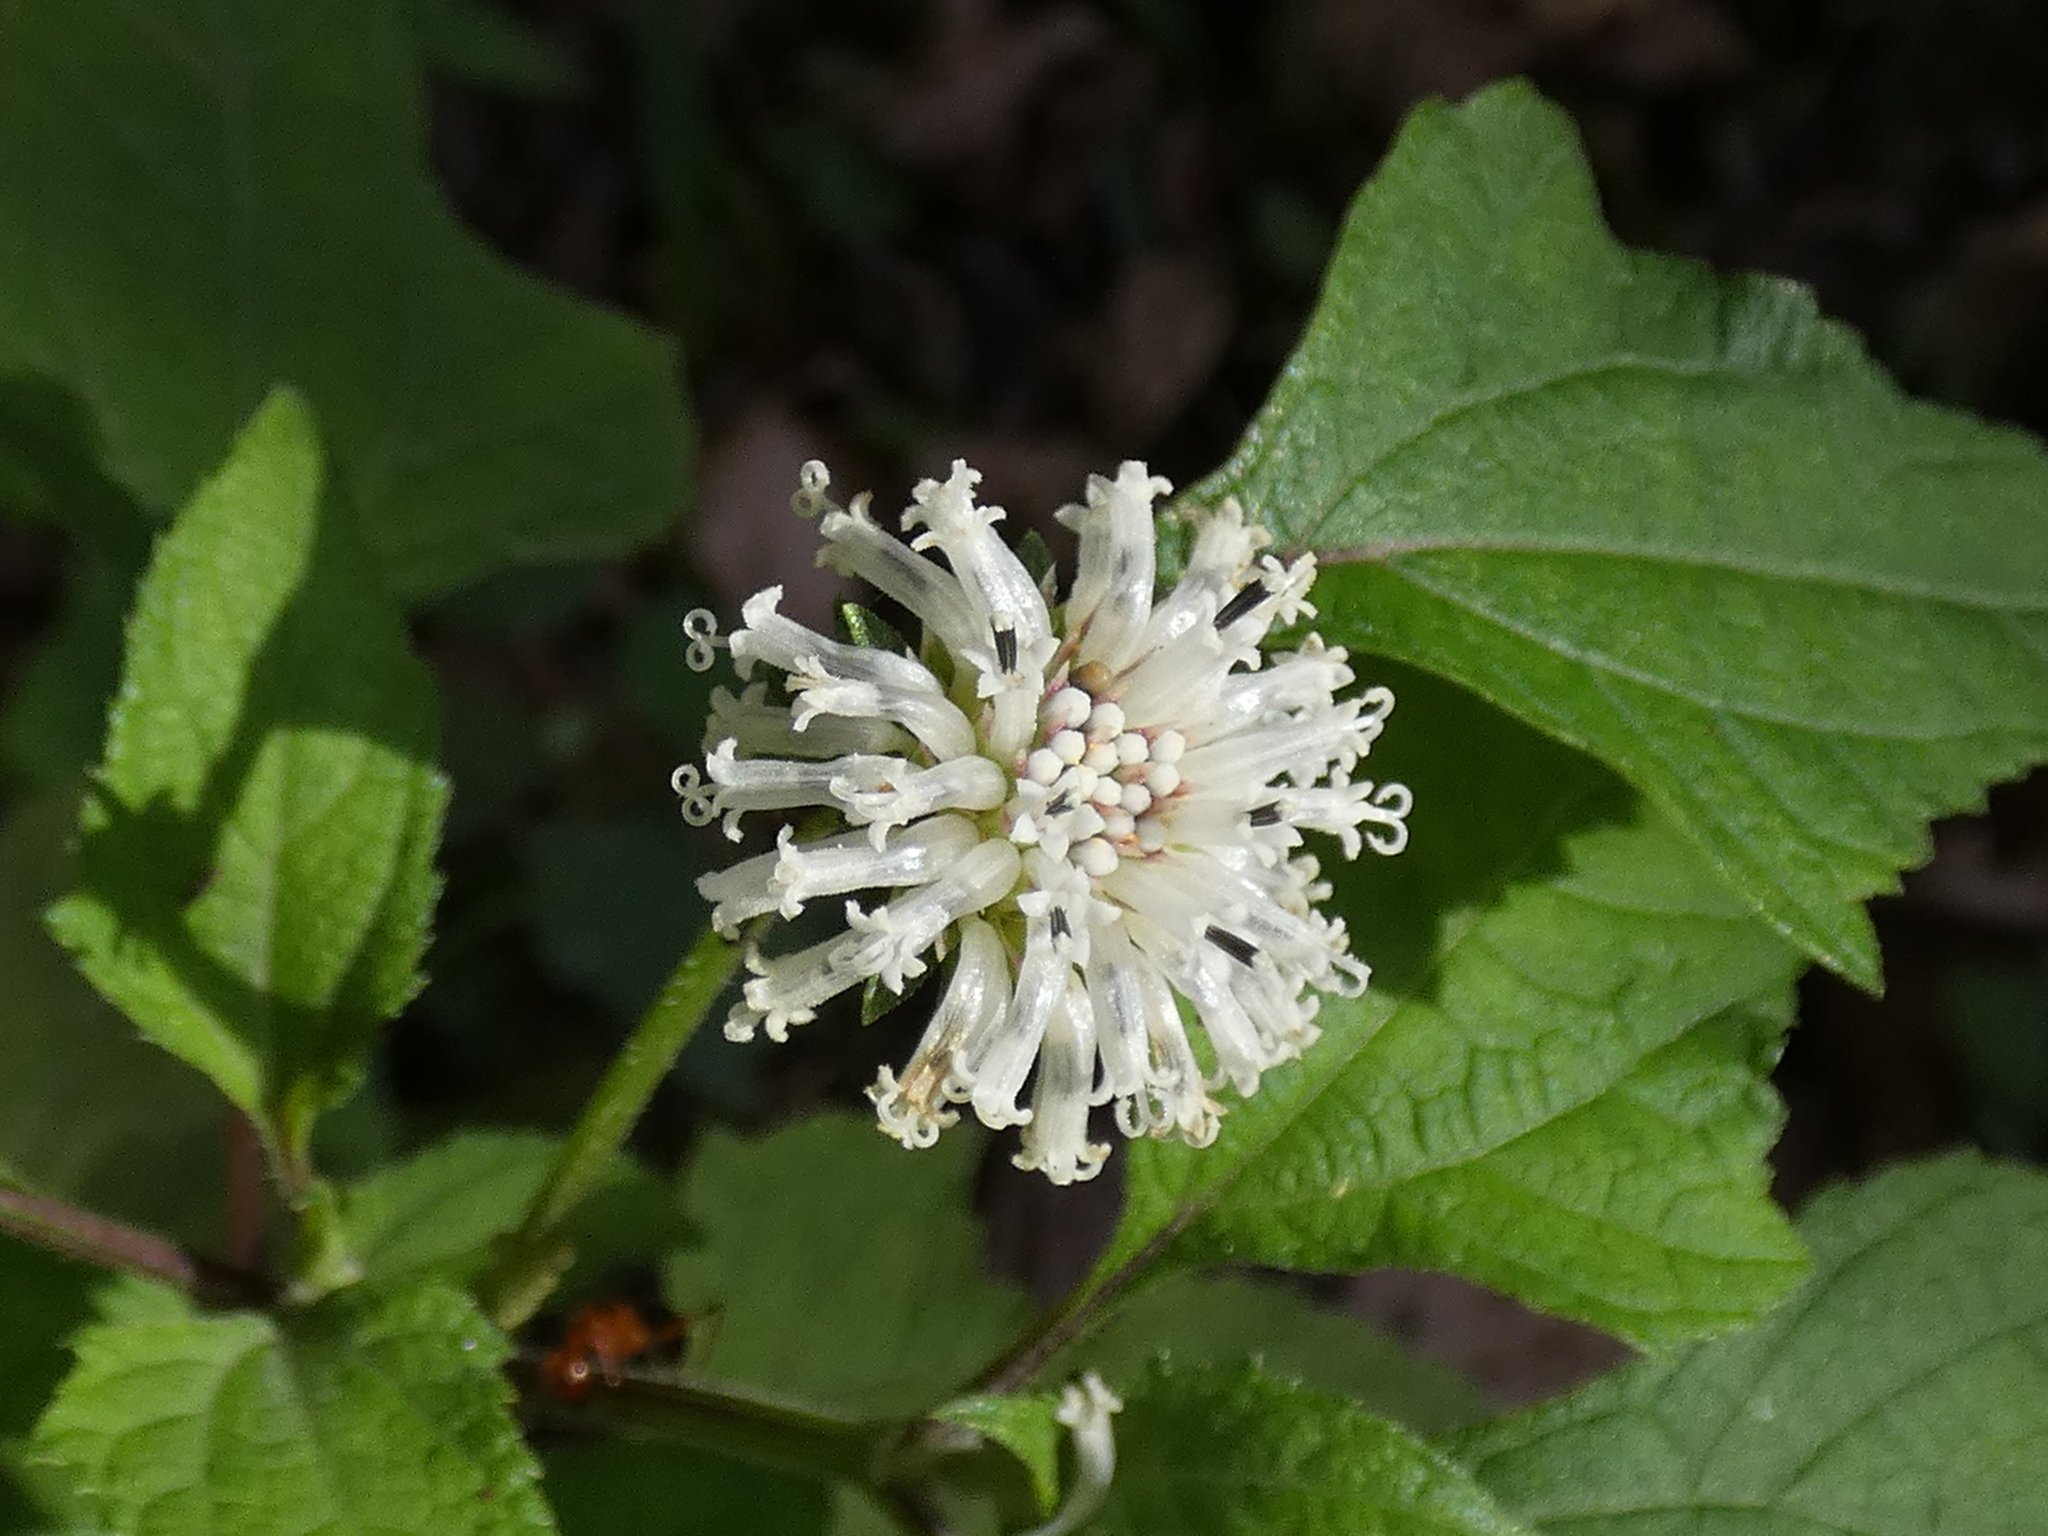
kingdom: Plantae
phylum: Tracheophyta
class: Magnoliopsida
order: Asterales
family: Asteraceae
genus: Melanthera
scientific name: Melanthera nivea
